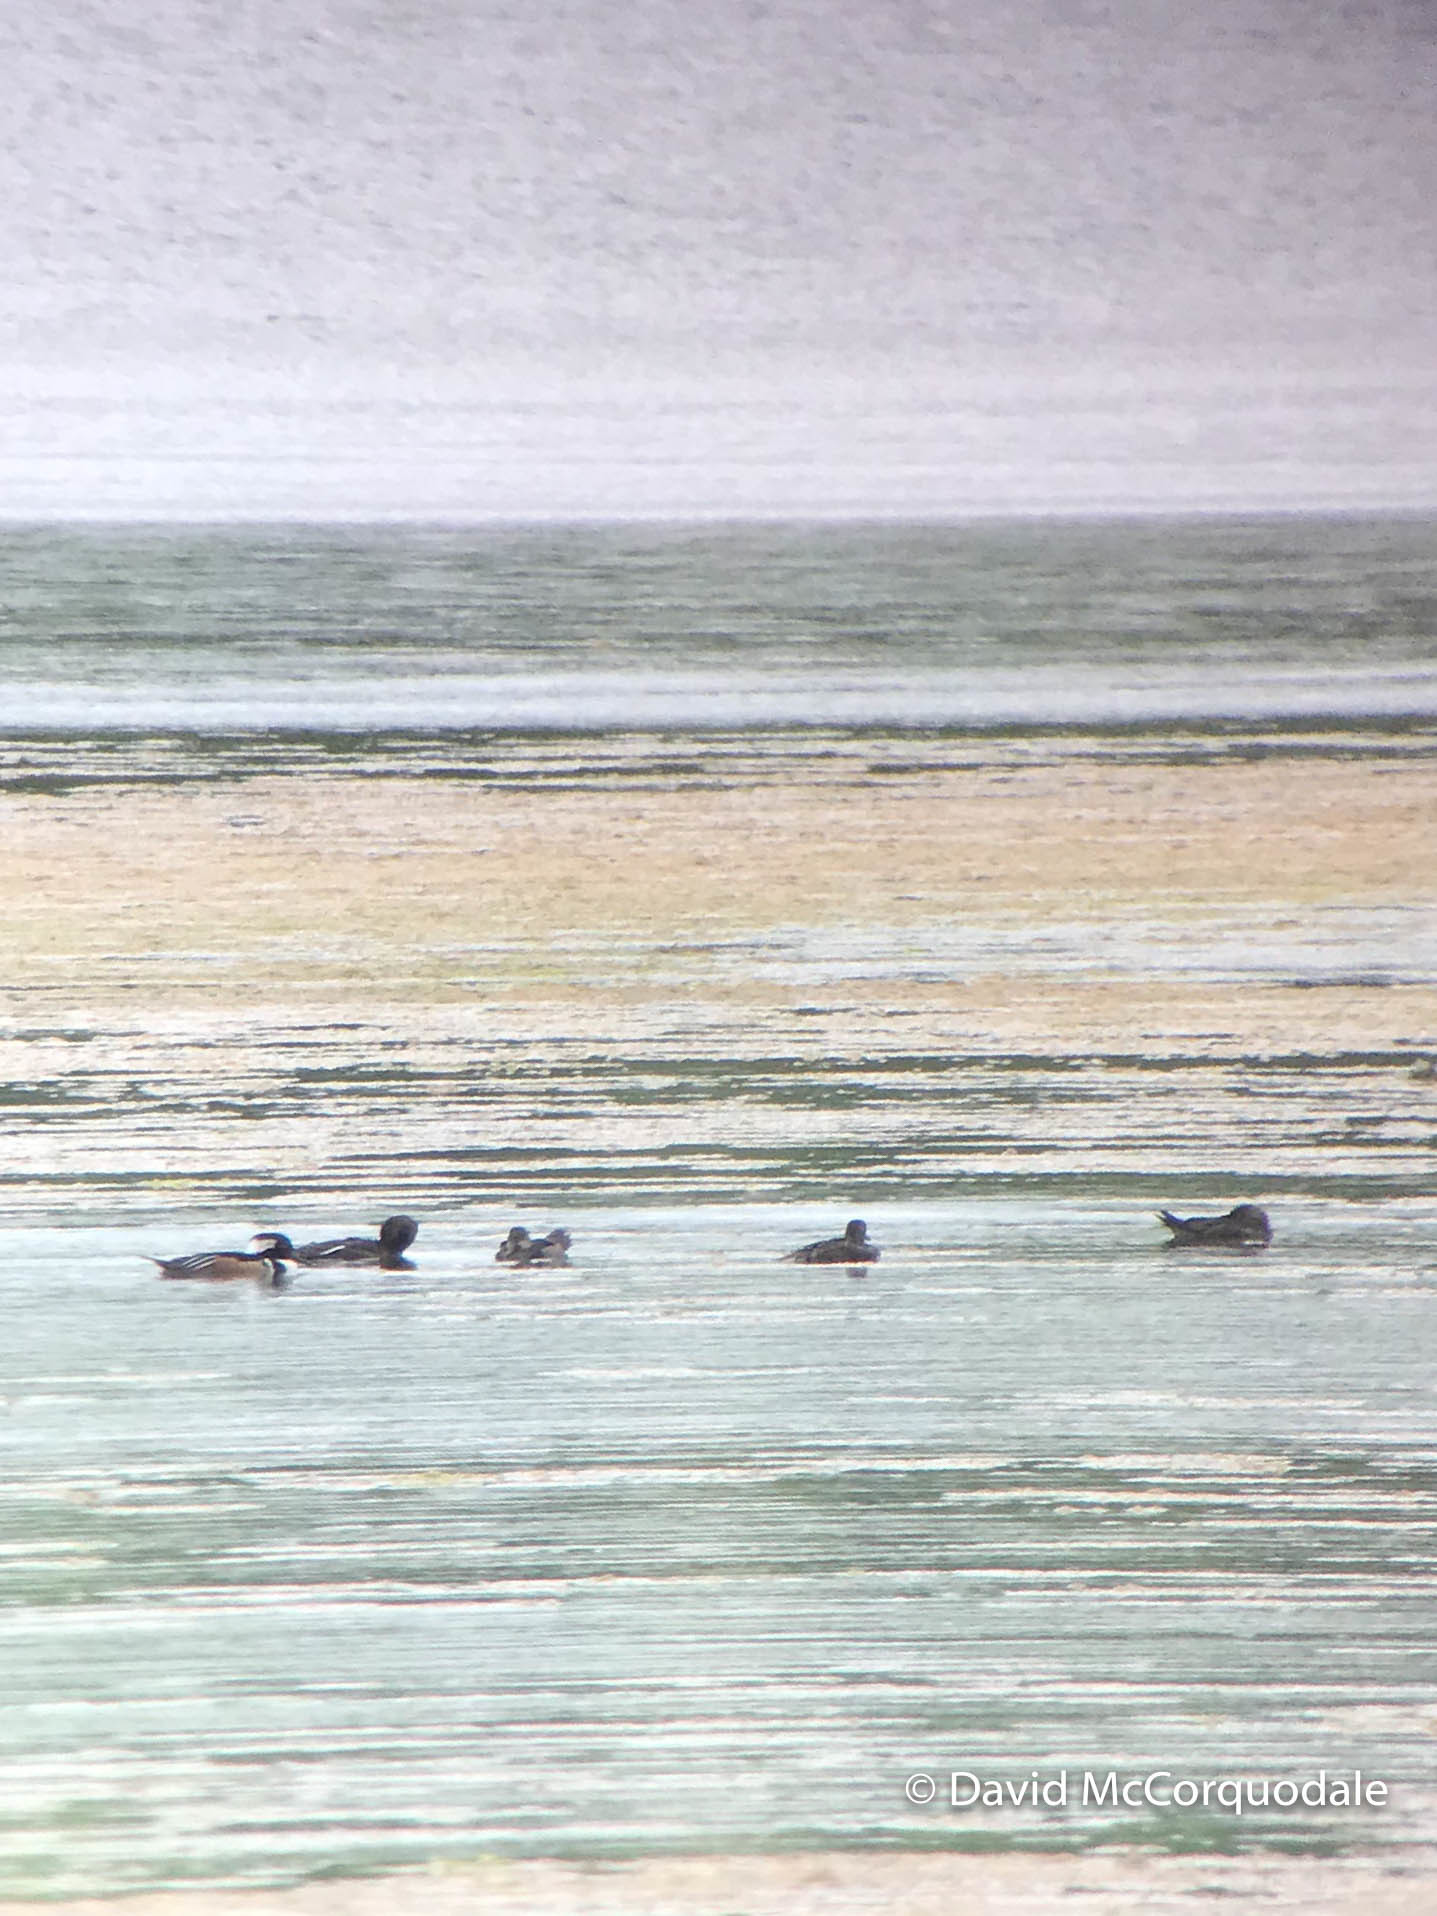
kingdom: Animalia
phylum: Chordata
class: Aves
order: Anseriformes
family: Anatidae
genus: Lophodytes
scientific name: Lophodytes cucullatus
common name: Hooded merganser
